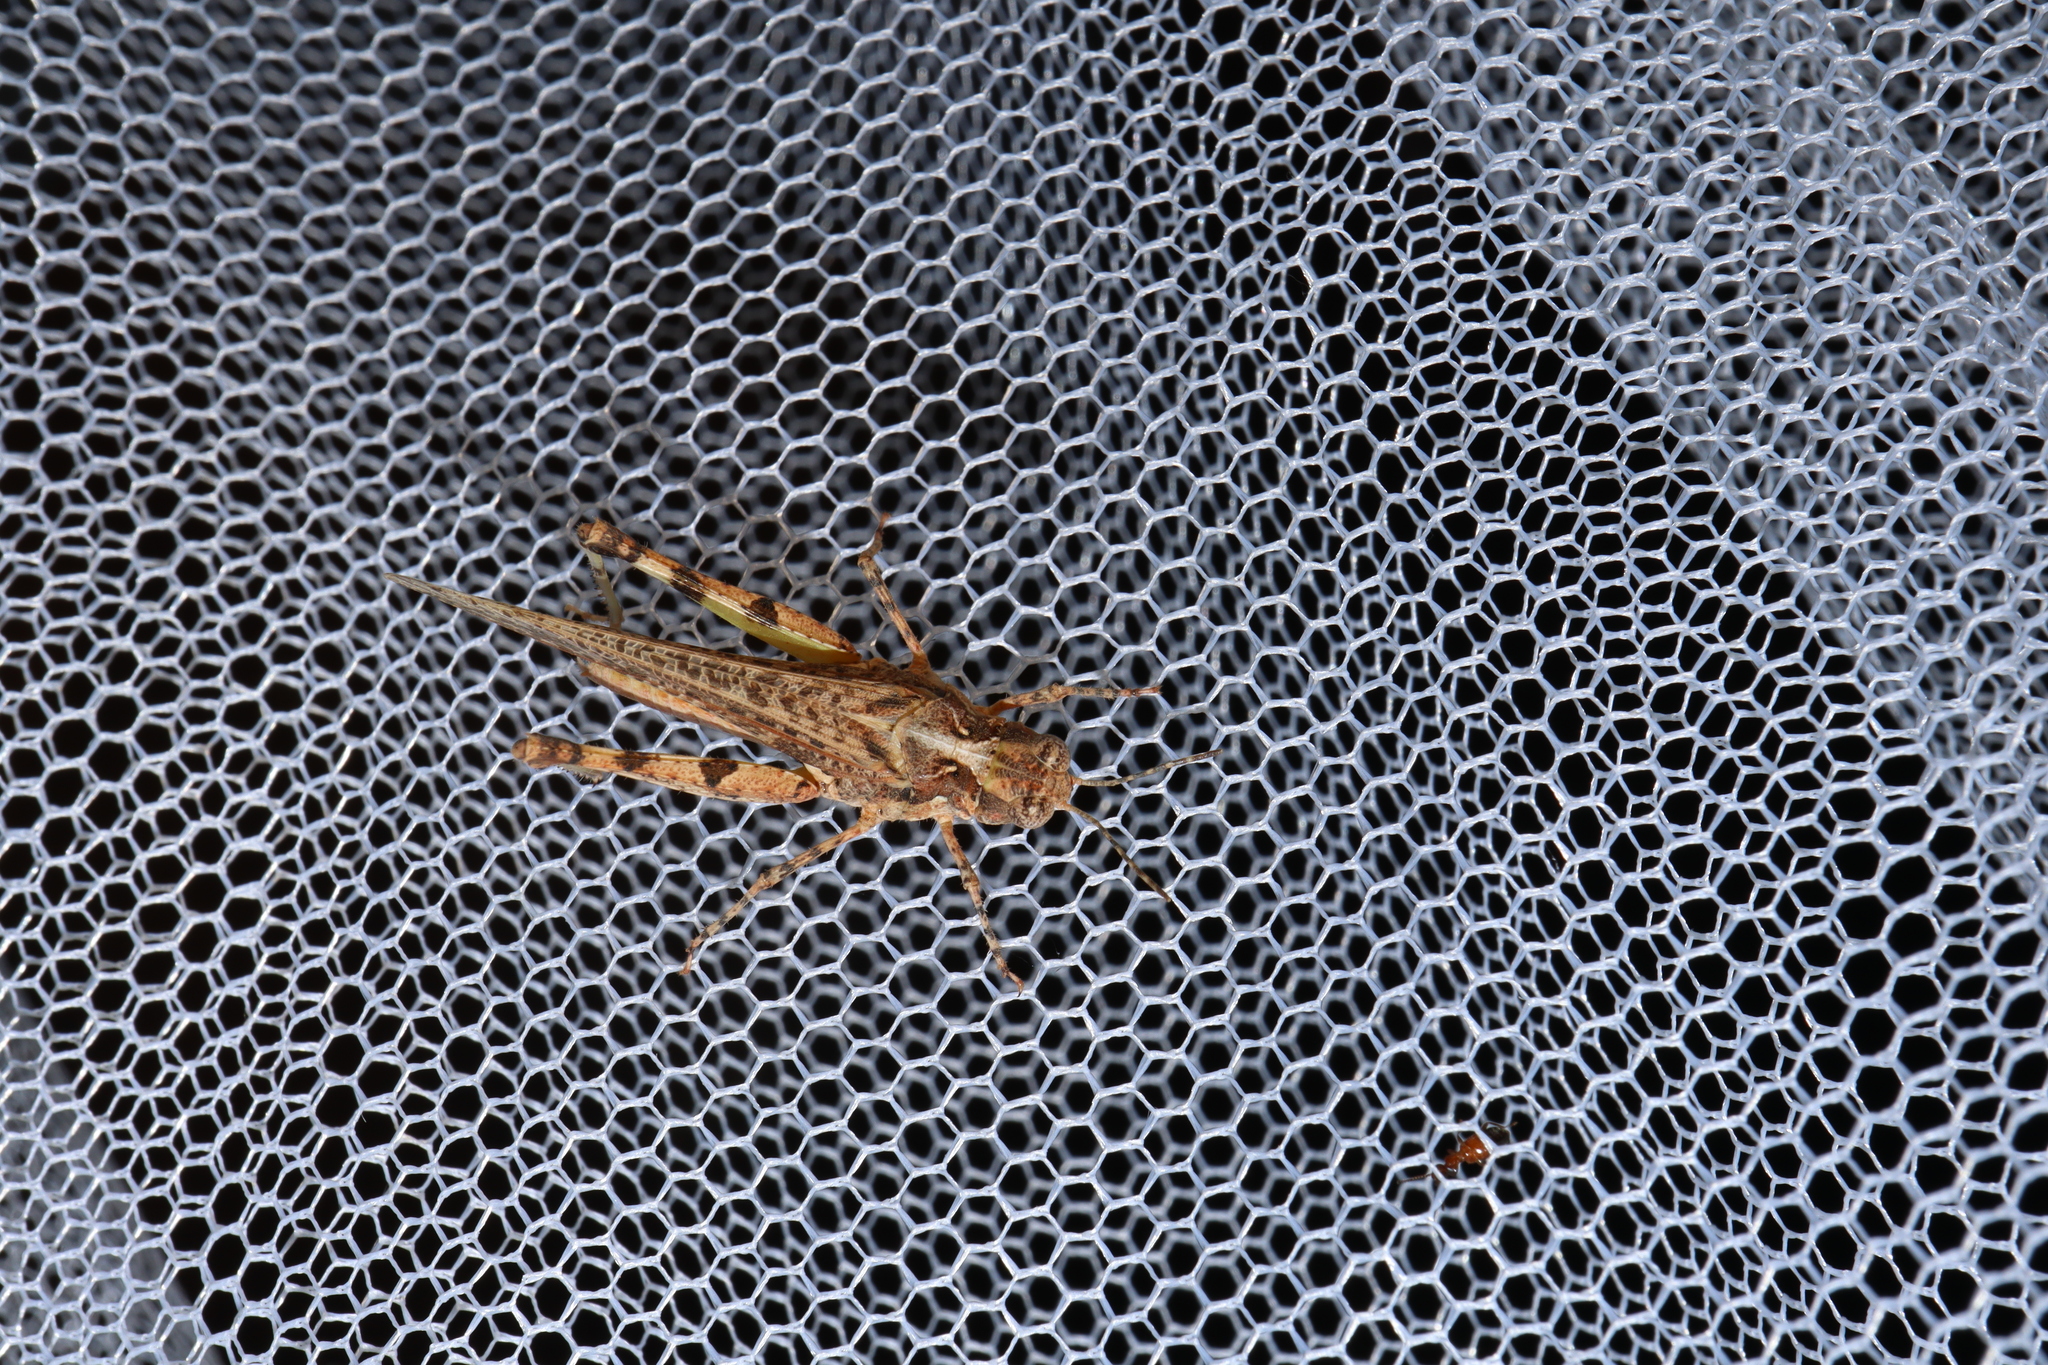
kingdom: Animalia
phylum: Arthropoda
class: Insecta
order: Orthoptera
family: Acrididae
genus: Pycnostictus
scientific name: Pycnostictus seriatus
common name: Common bandwing
